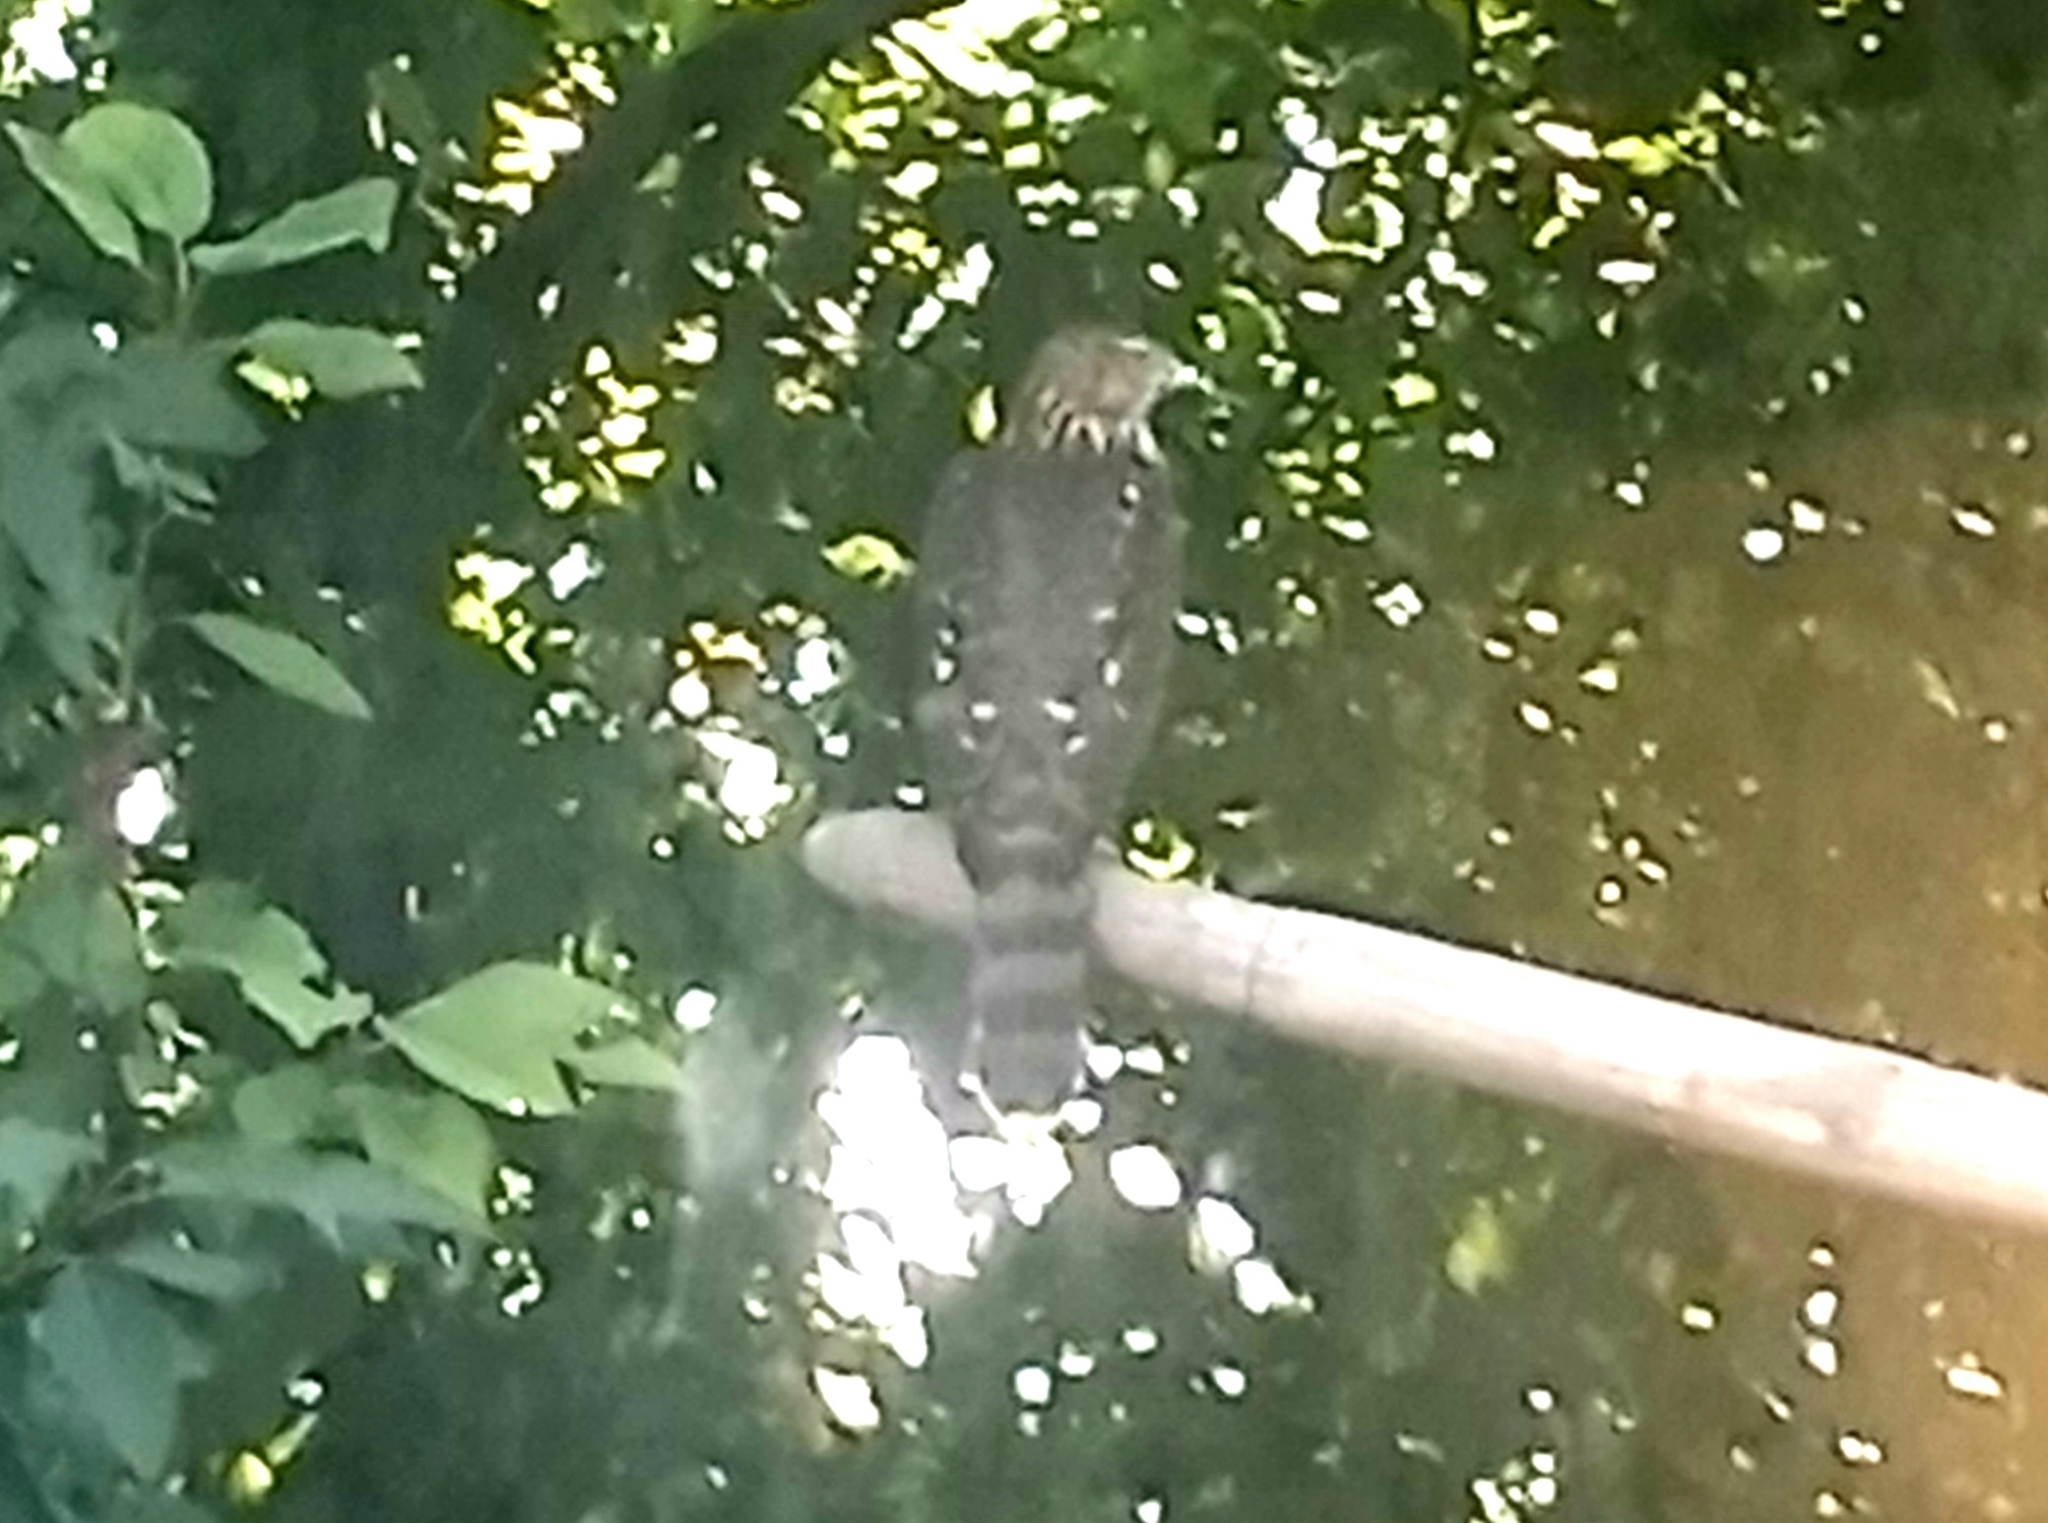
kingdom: Animalia
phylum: Chordata
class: Aves
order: Accipitriformes
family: Accipitridae
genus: Accipiter
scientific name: Accipiter cooperii
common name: Cooper's hawk
